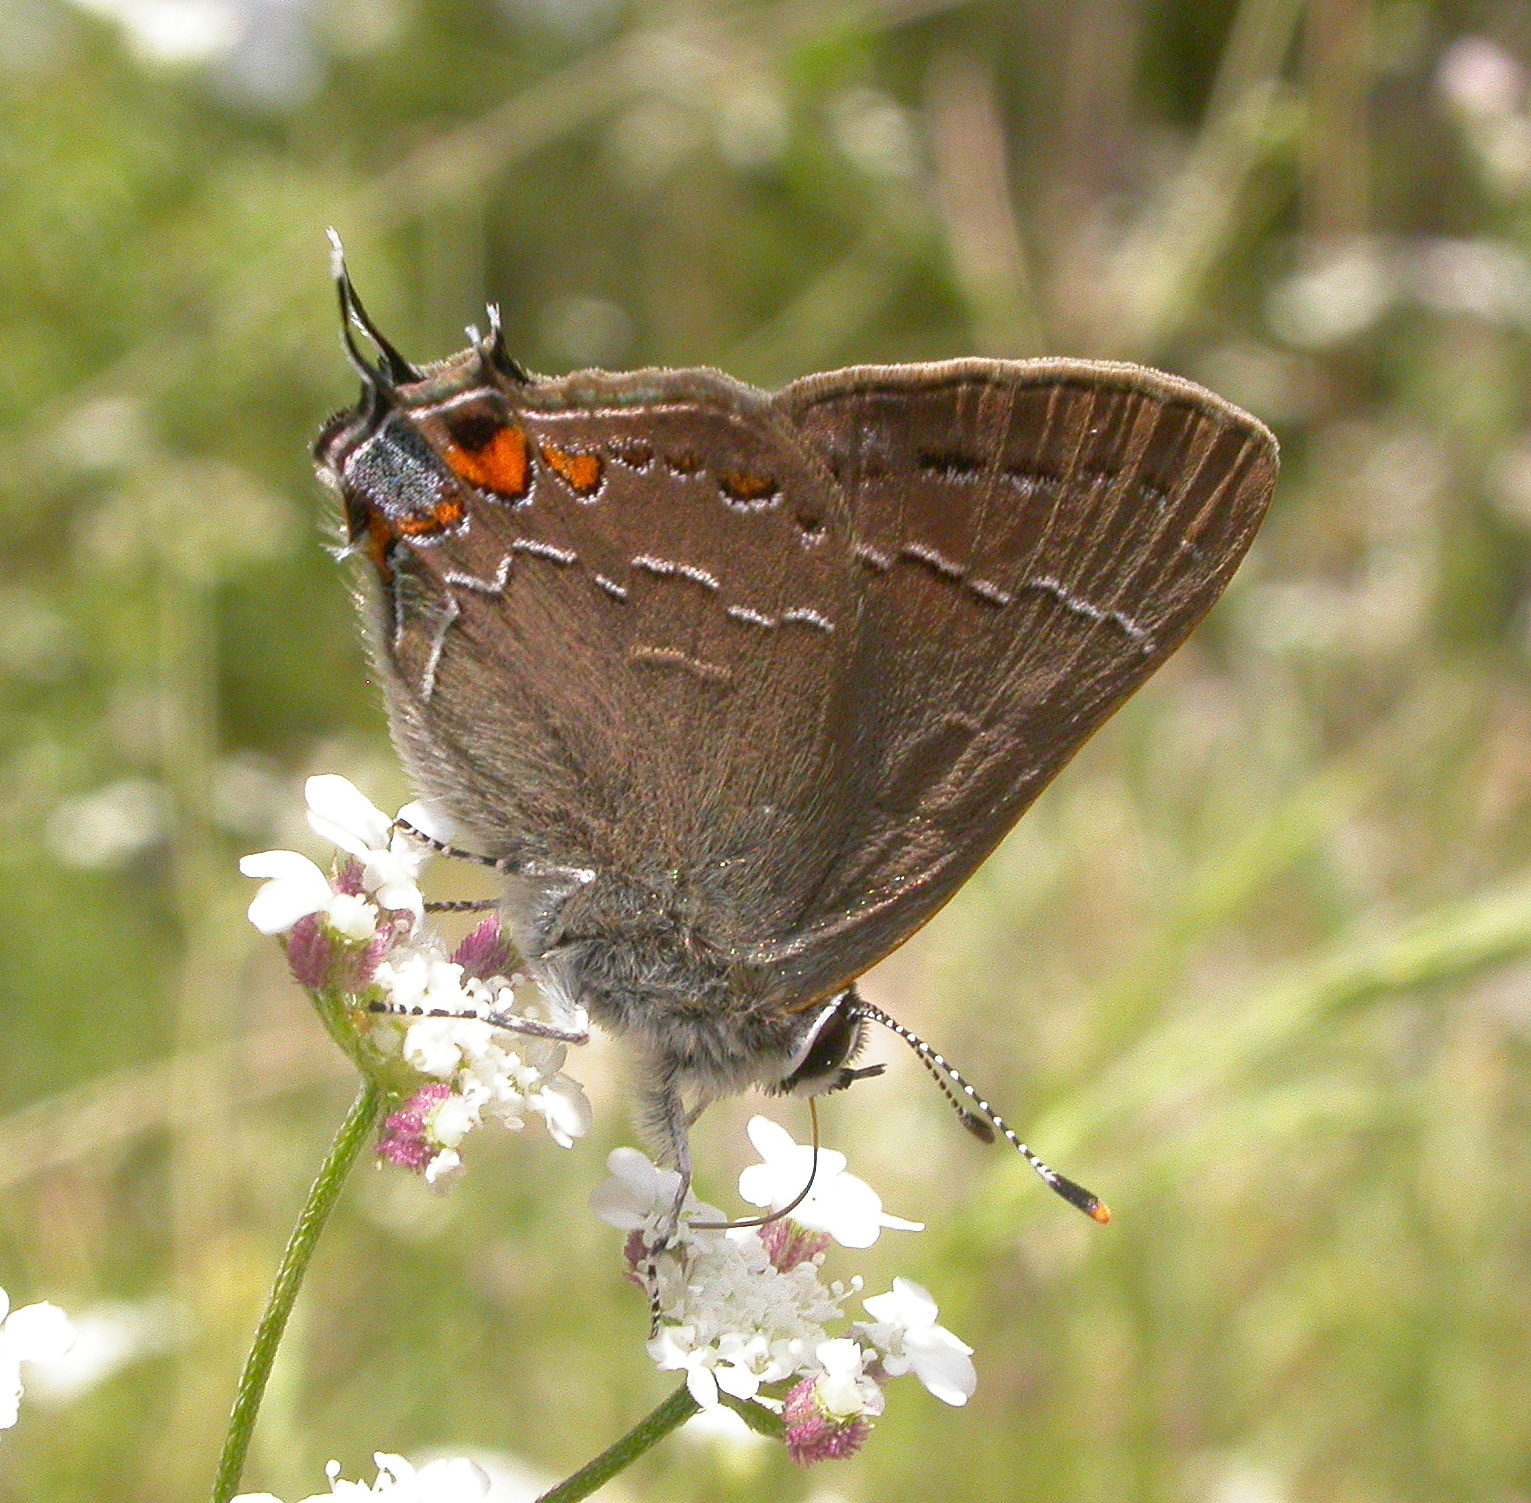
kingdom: Animalia
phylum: Arthropoda
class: Insecta
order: Lepidoptera
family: Lycaenidae
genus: Fixsenia
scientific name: Fixsenia favonius
